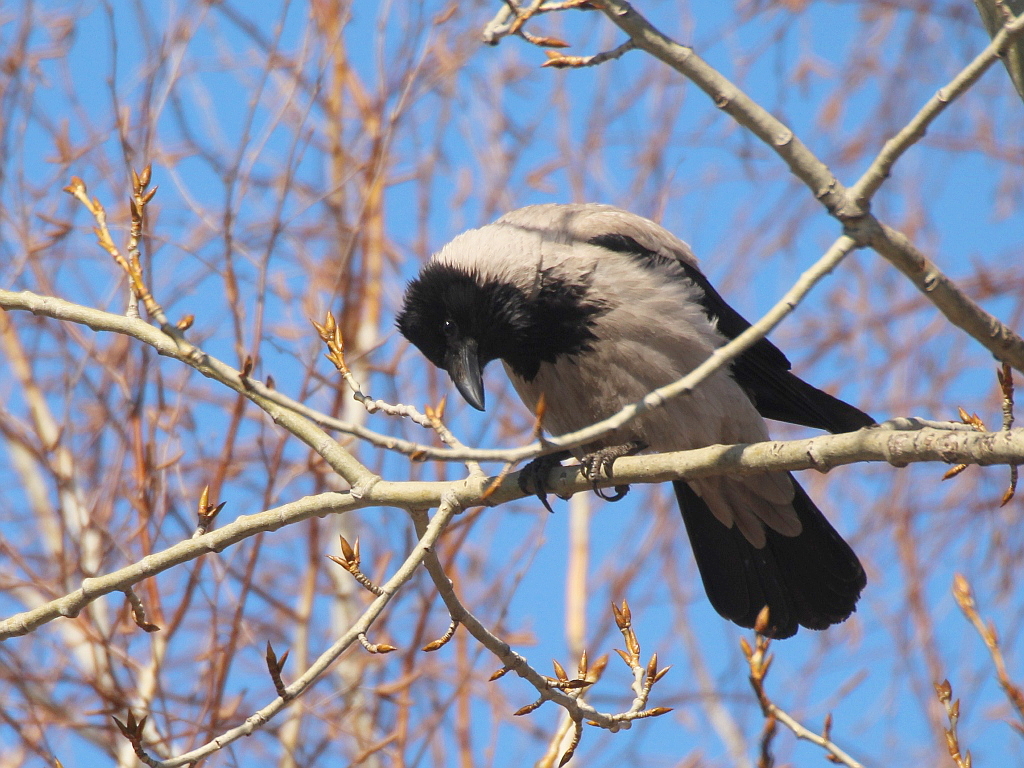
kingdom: Animalia
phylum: Chordata
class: Aves
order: Passeriformes
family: Corvidae
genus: Corvus
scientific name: Corvus cornix
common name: Hooded crow
